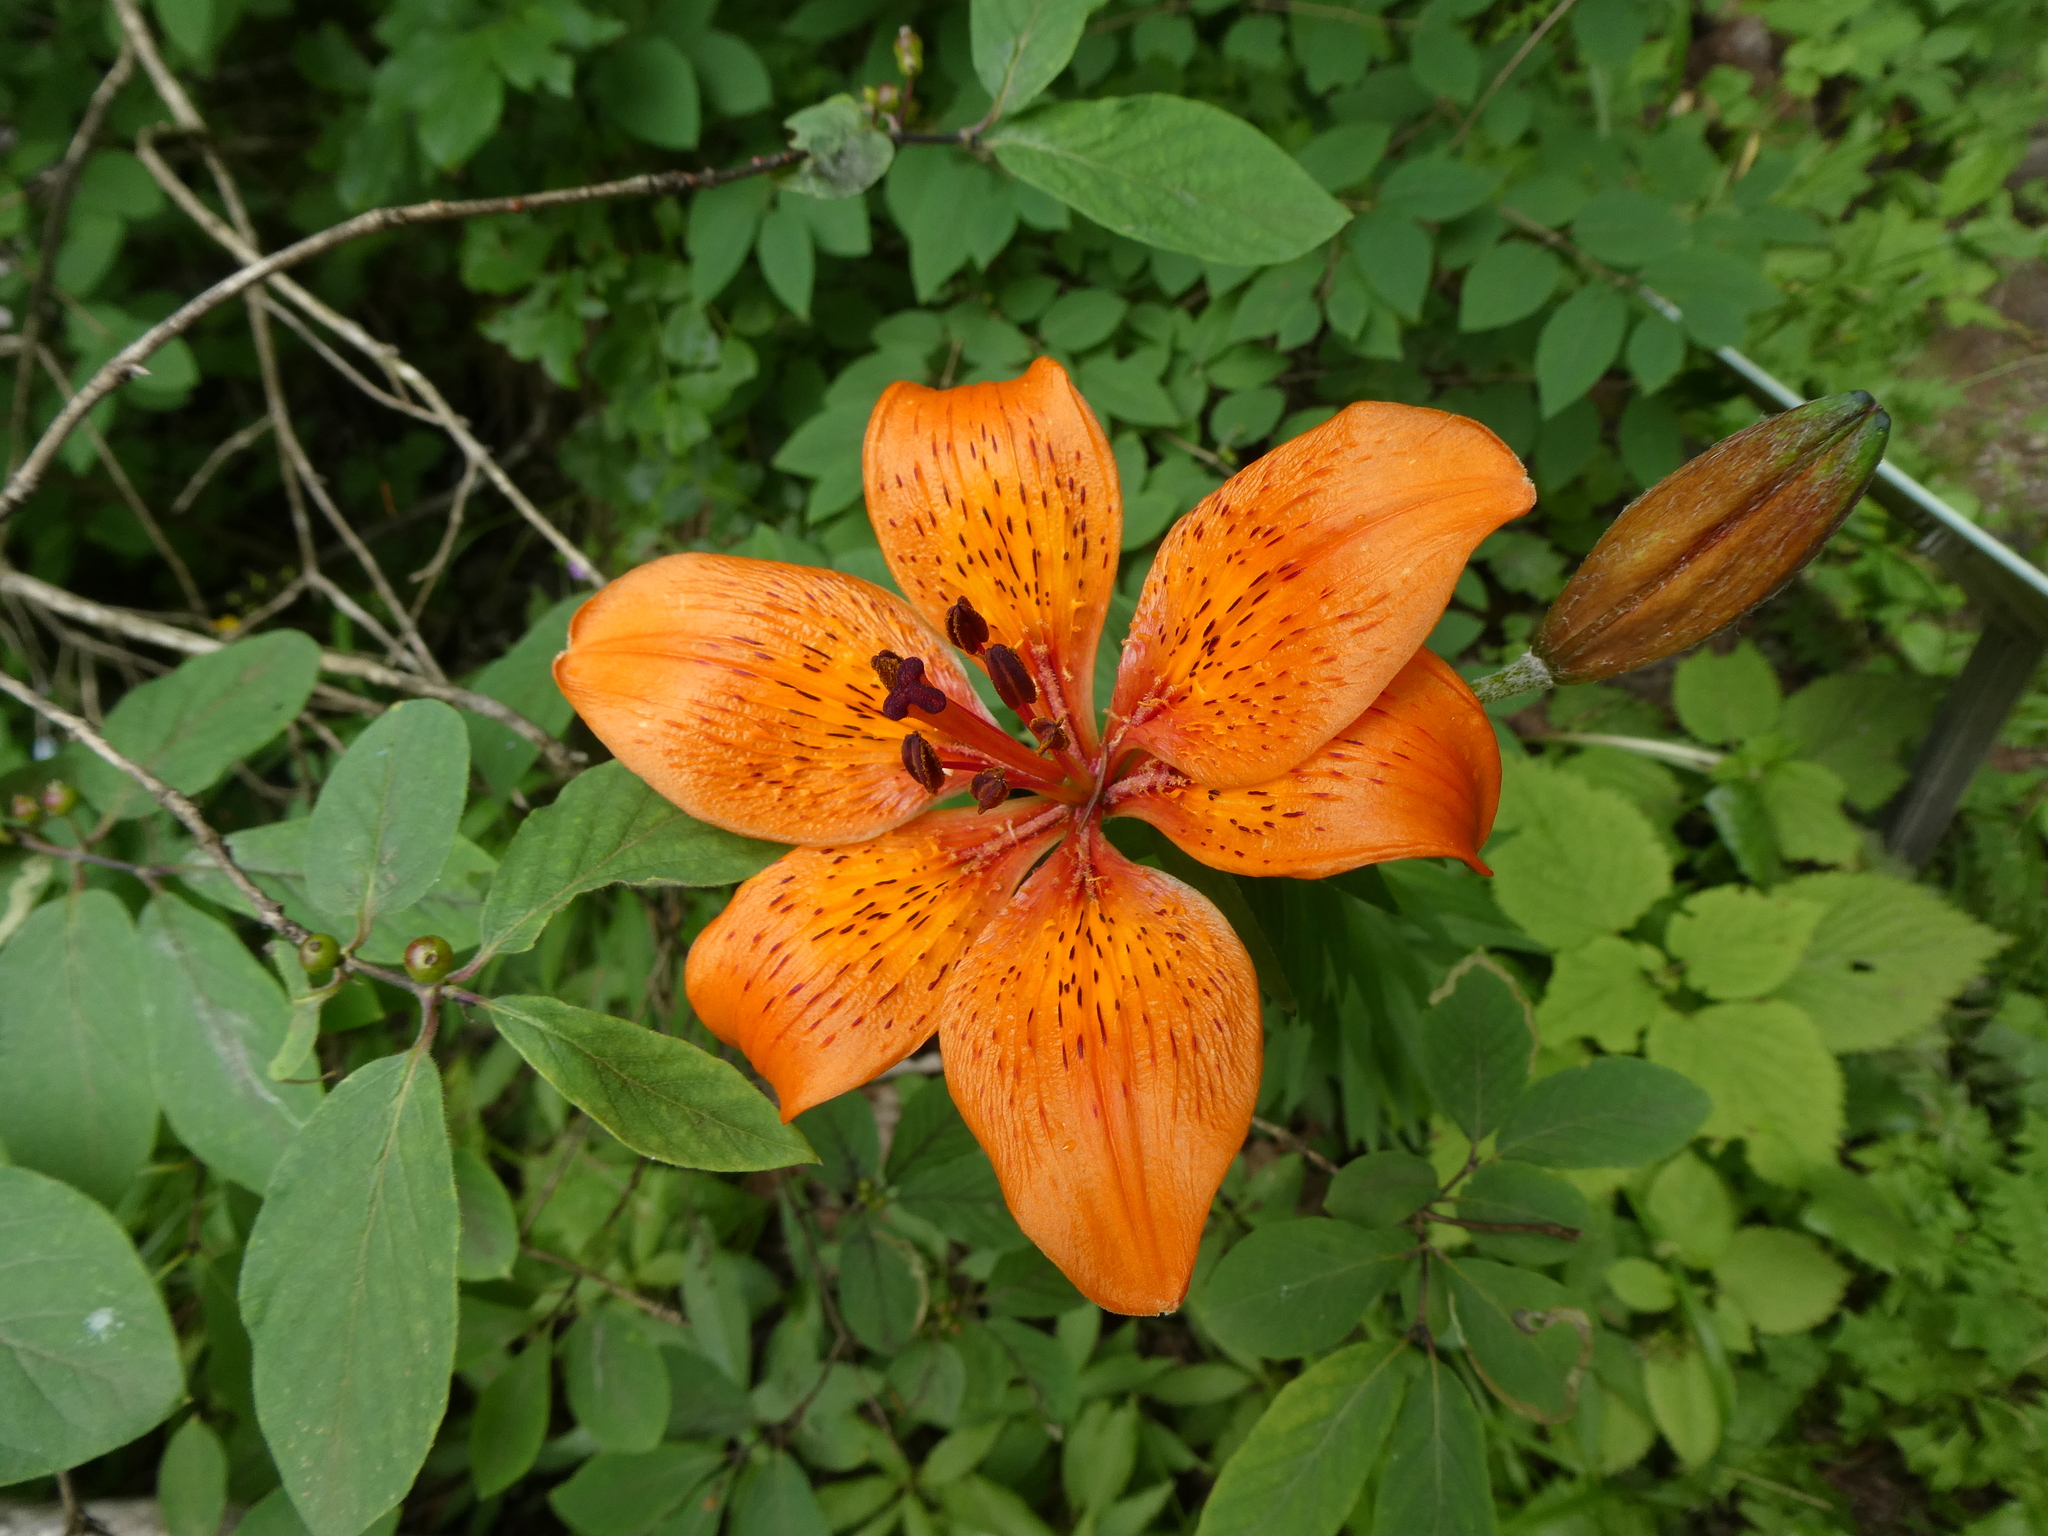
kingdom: Plantae
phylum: Tracheophyta
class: Liliopsida
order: Liliales
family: Liliaceae
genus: Lilium
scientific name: Lilium bulbiferum
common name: Orange lily
